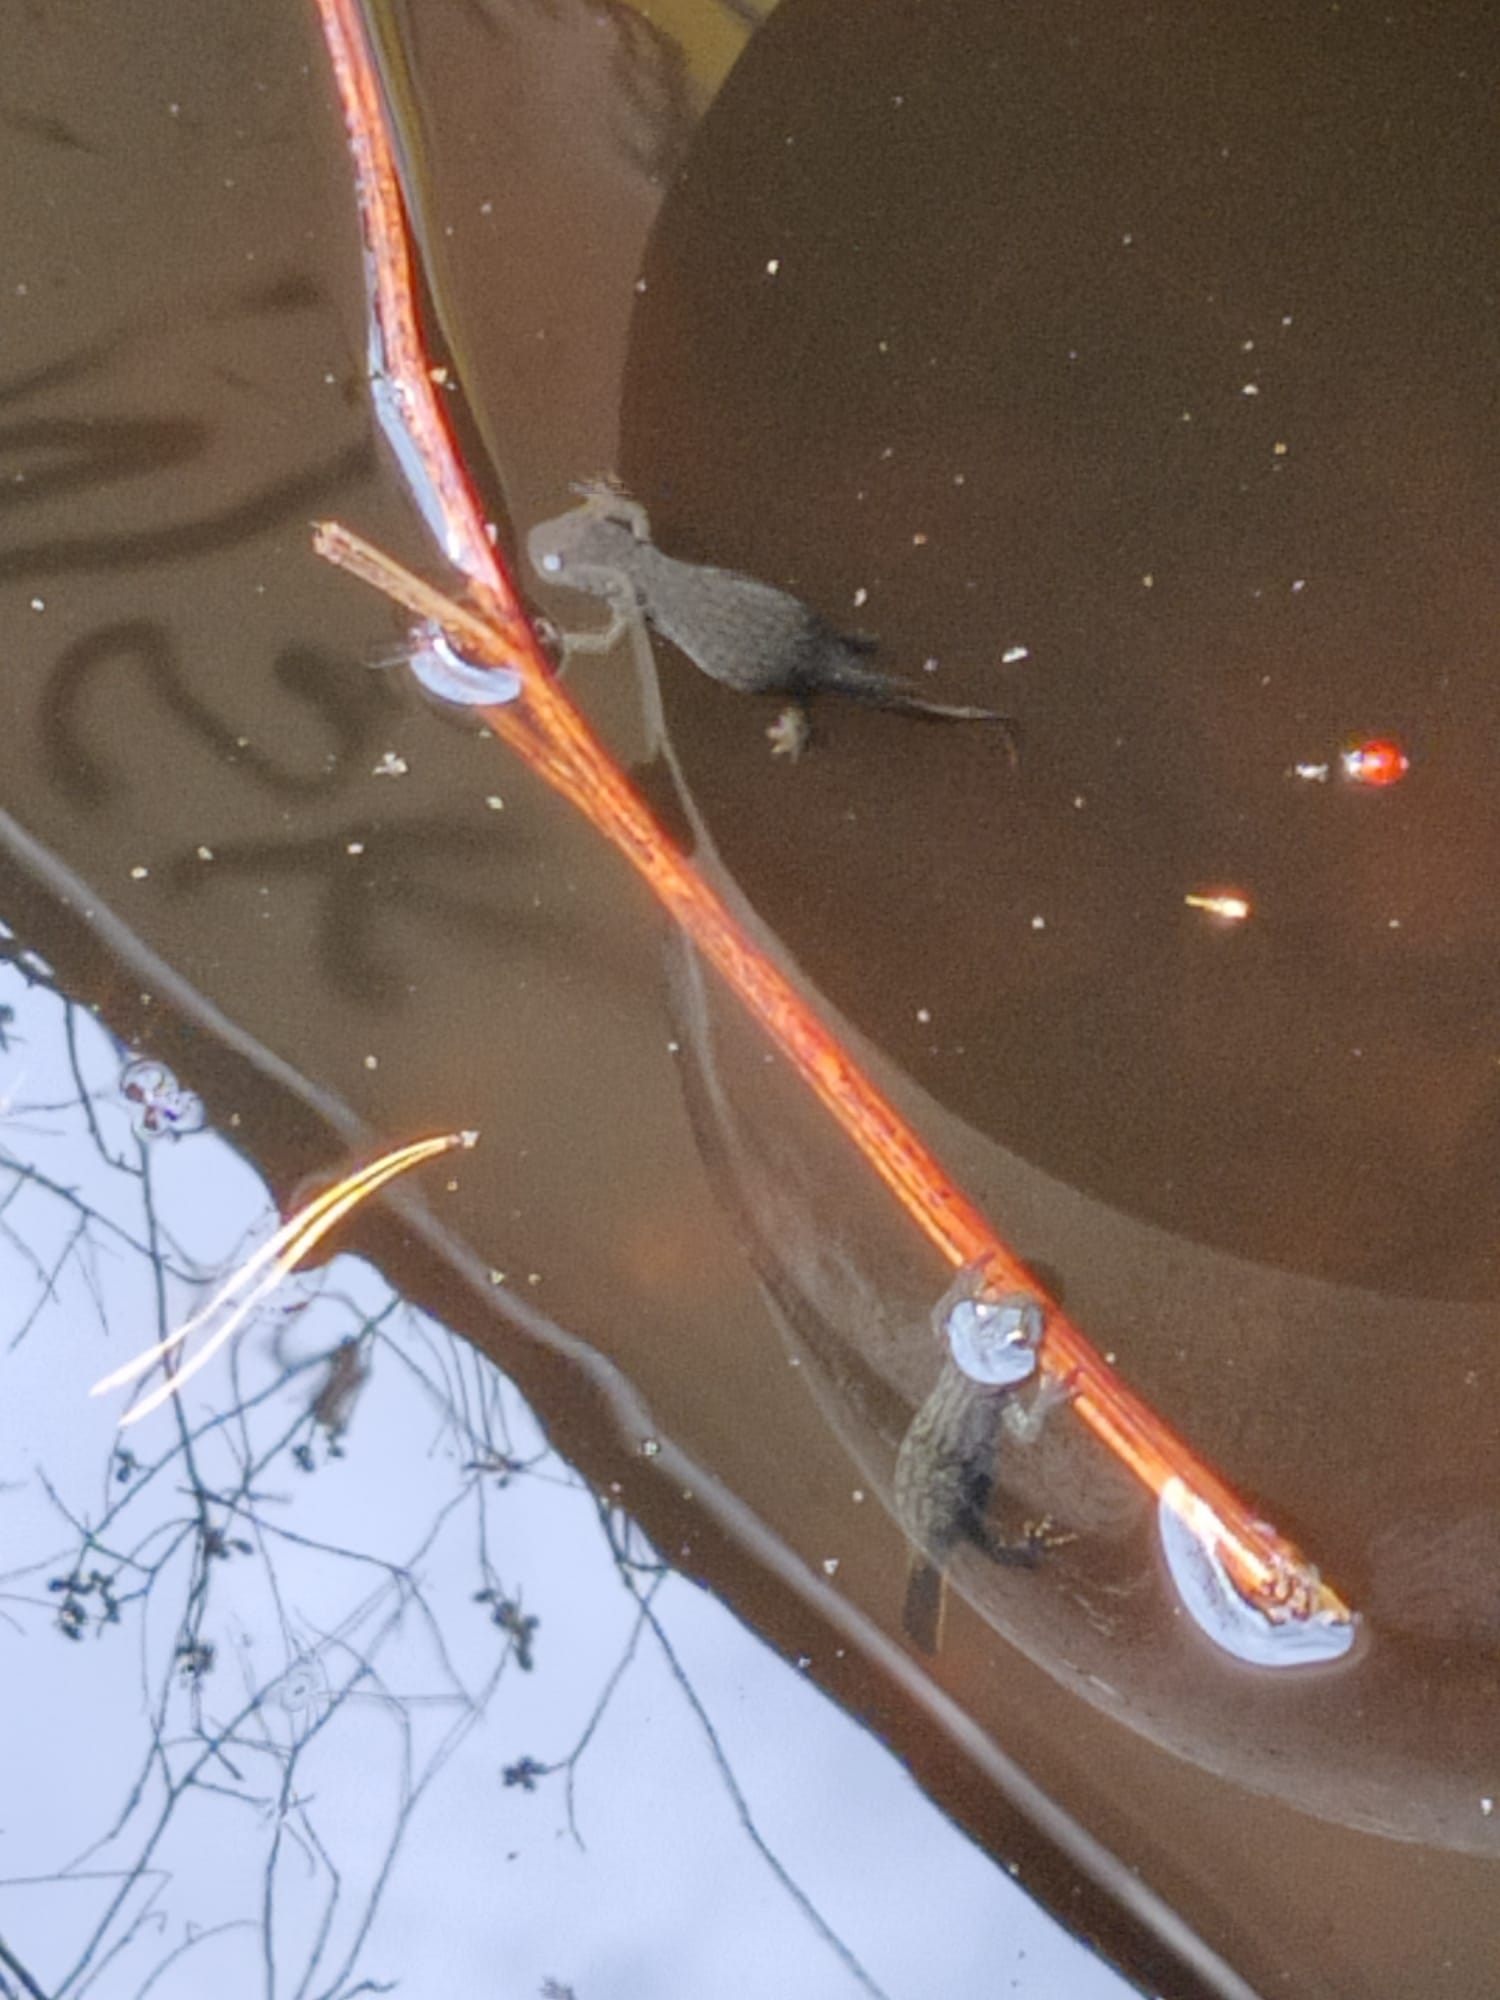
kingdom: Animalia
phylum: Chordata
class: Amphibia
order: Caudata
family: Salamandridae
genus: Ichthyosaura
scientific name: Ichthyosaura alpestris
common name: Alpine newt
